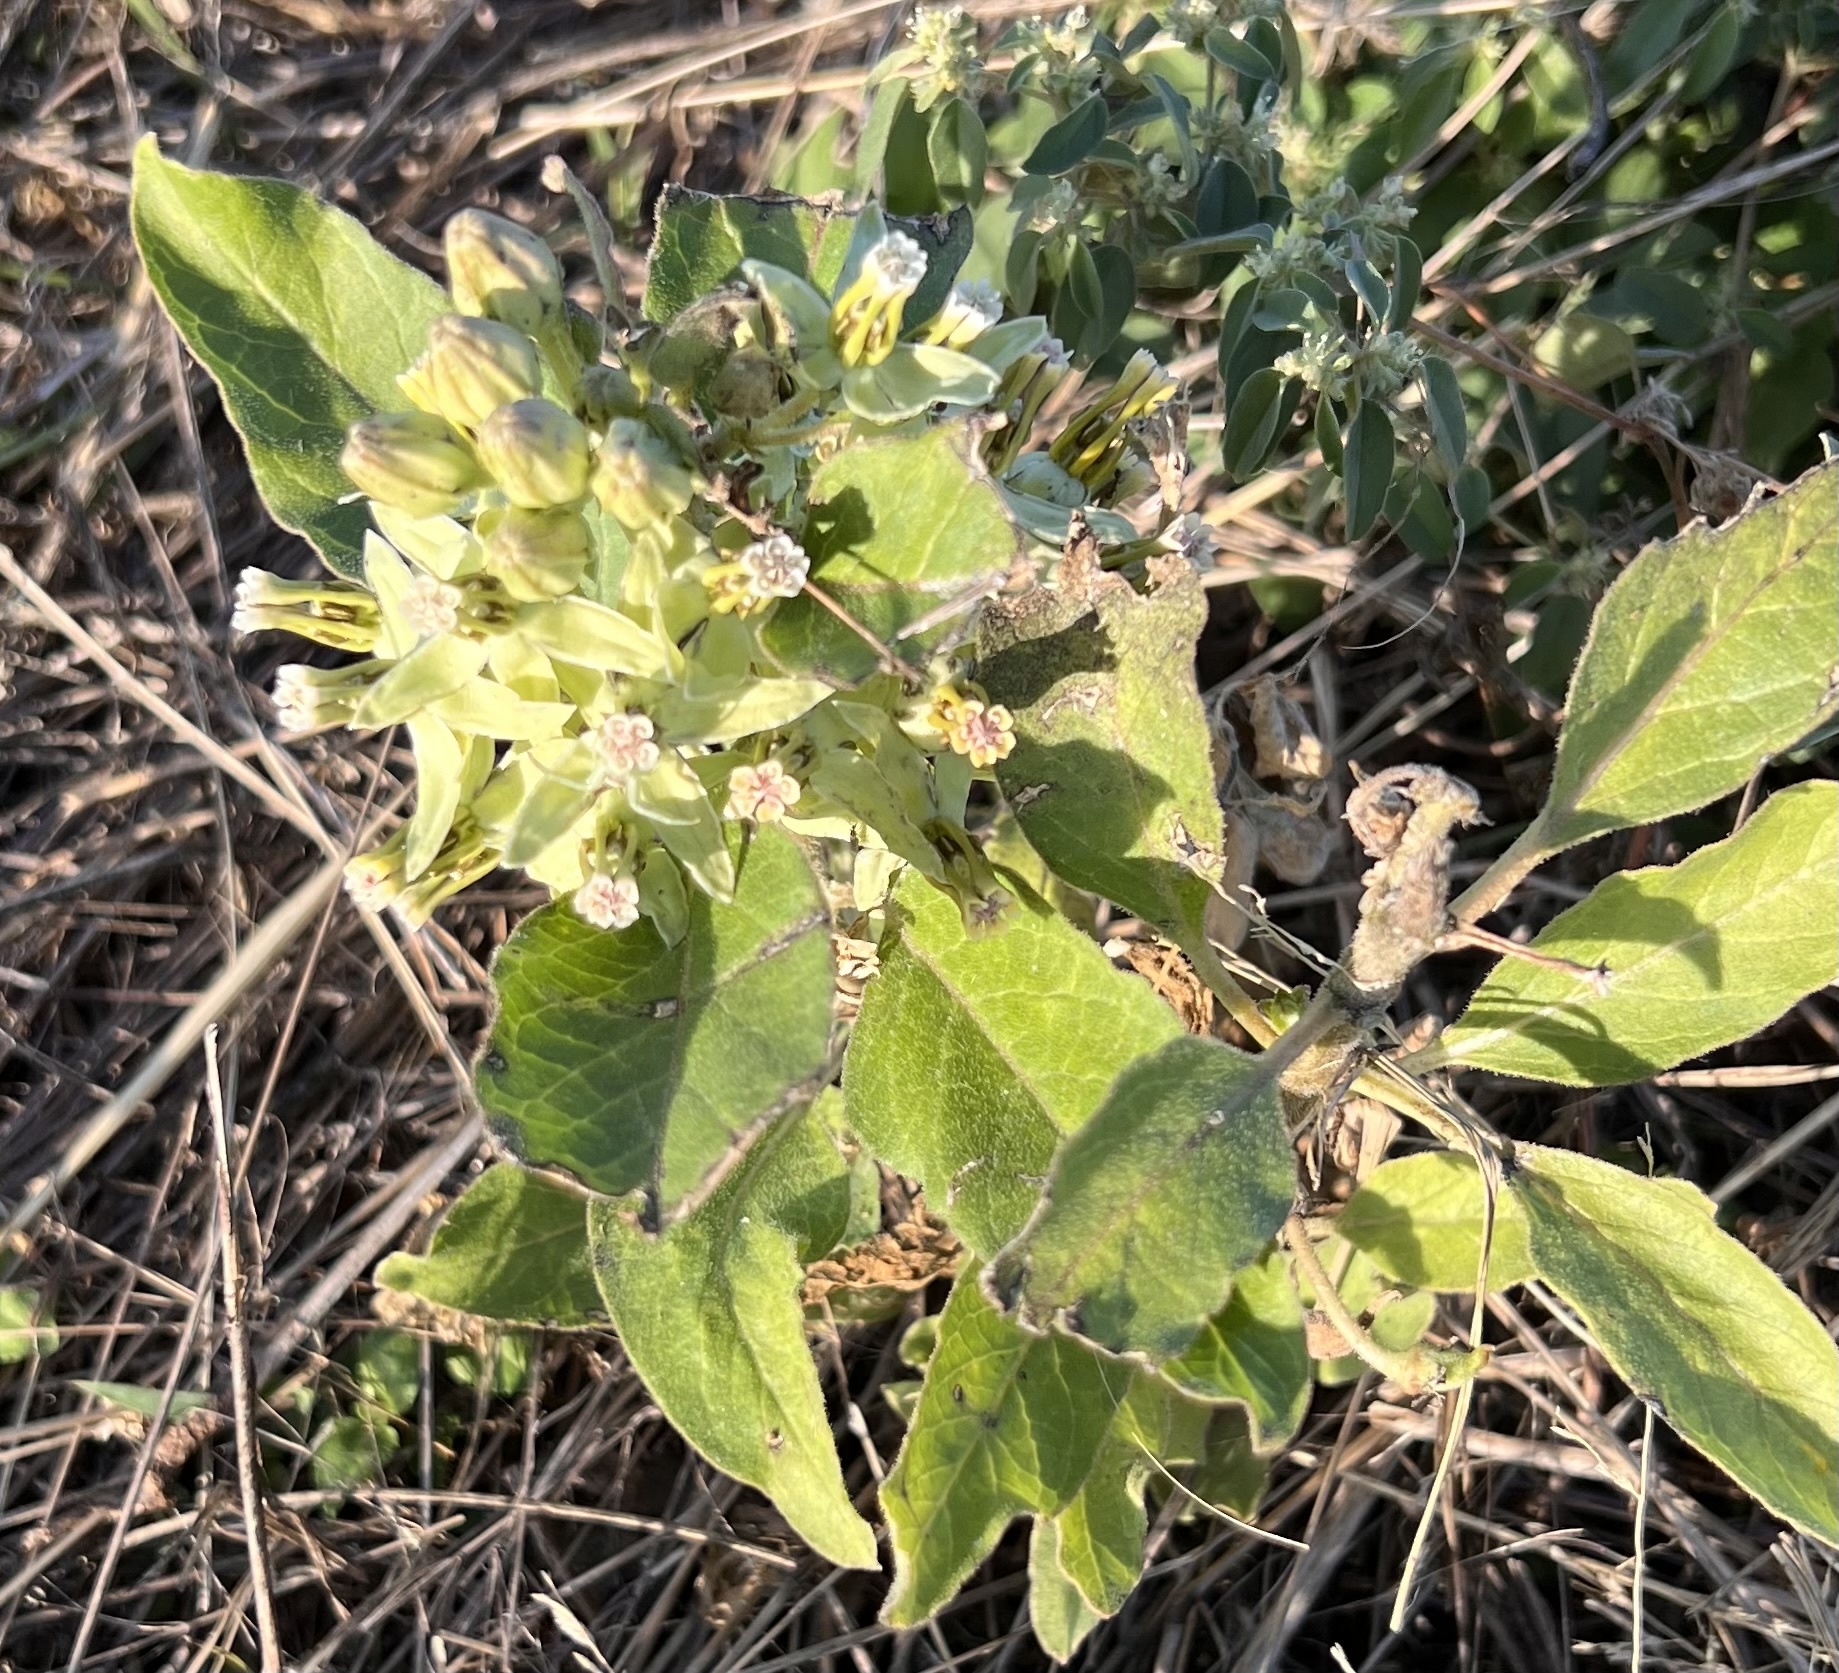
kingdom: Plantae
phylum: Tracheophyta
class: Magnoliopsida
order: Gentianales
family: Apocynaceae
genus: Asclepias
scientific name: Asclepias oenotheroides
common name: Zizotes milkweed
